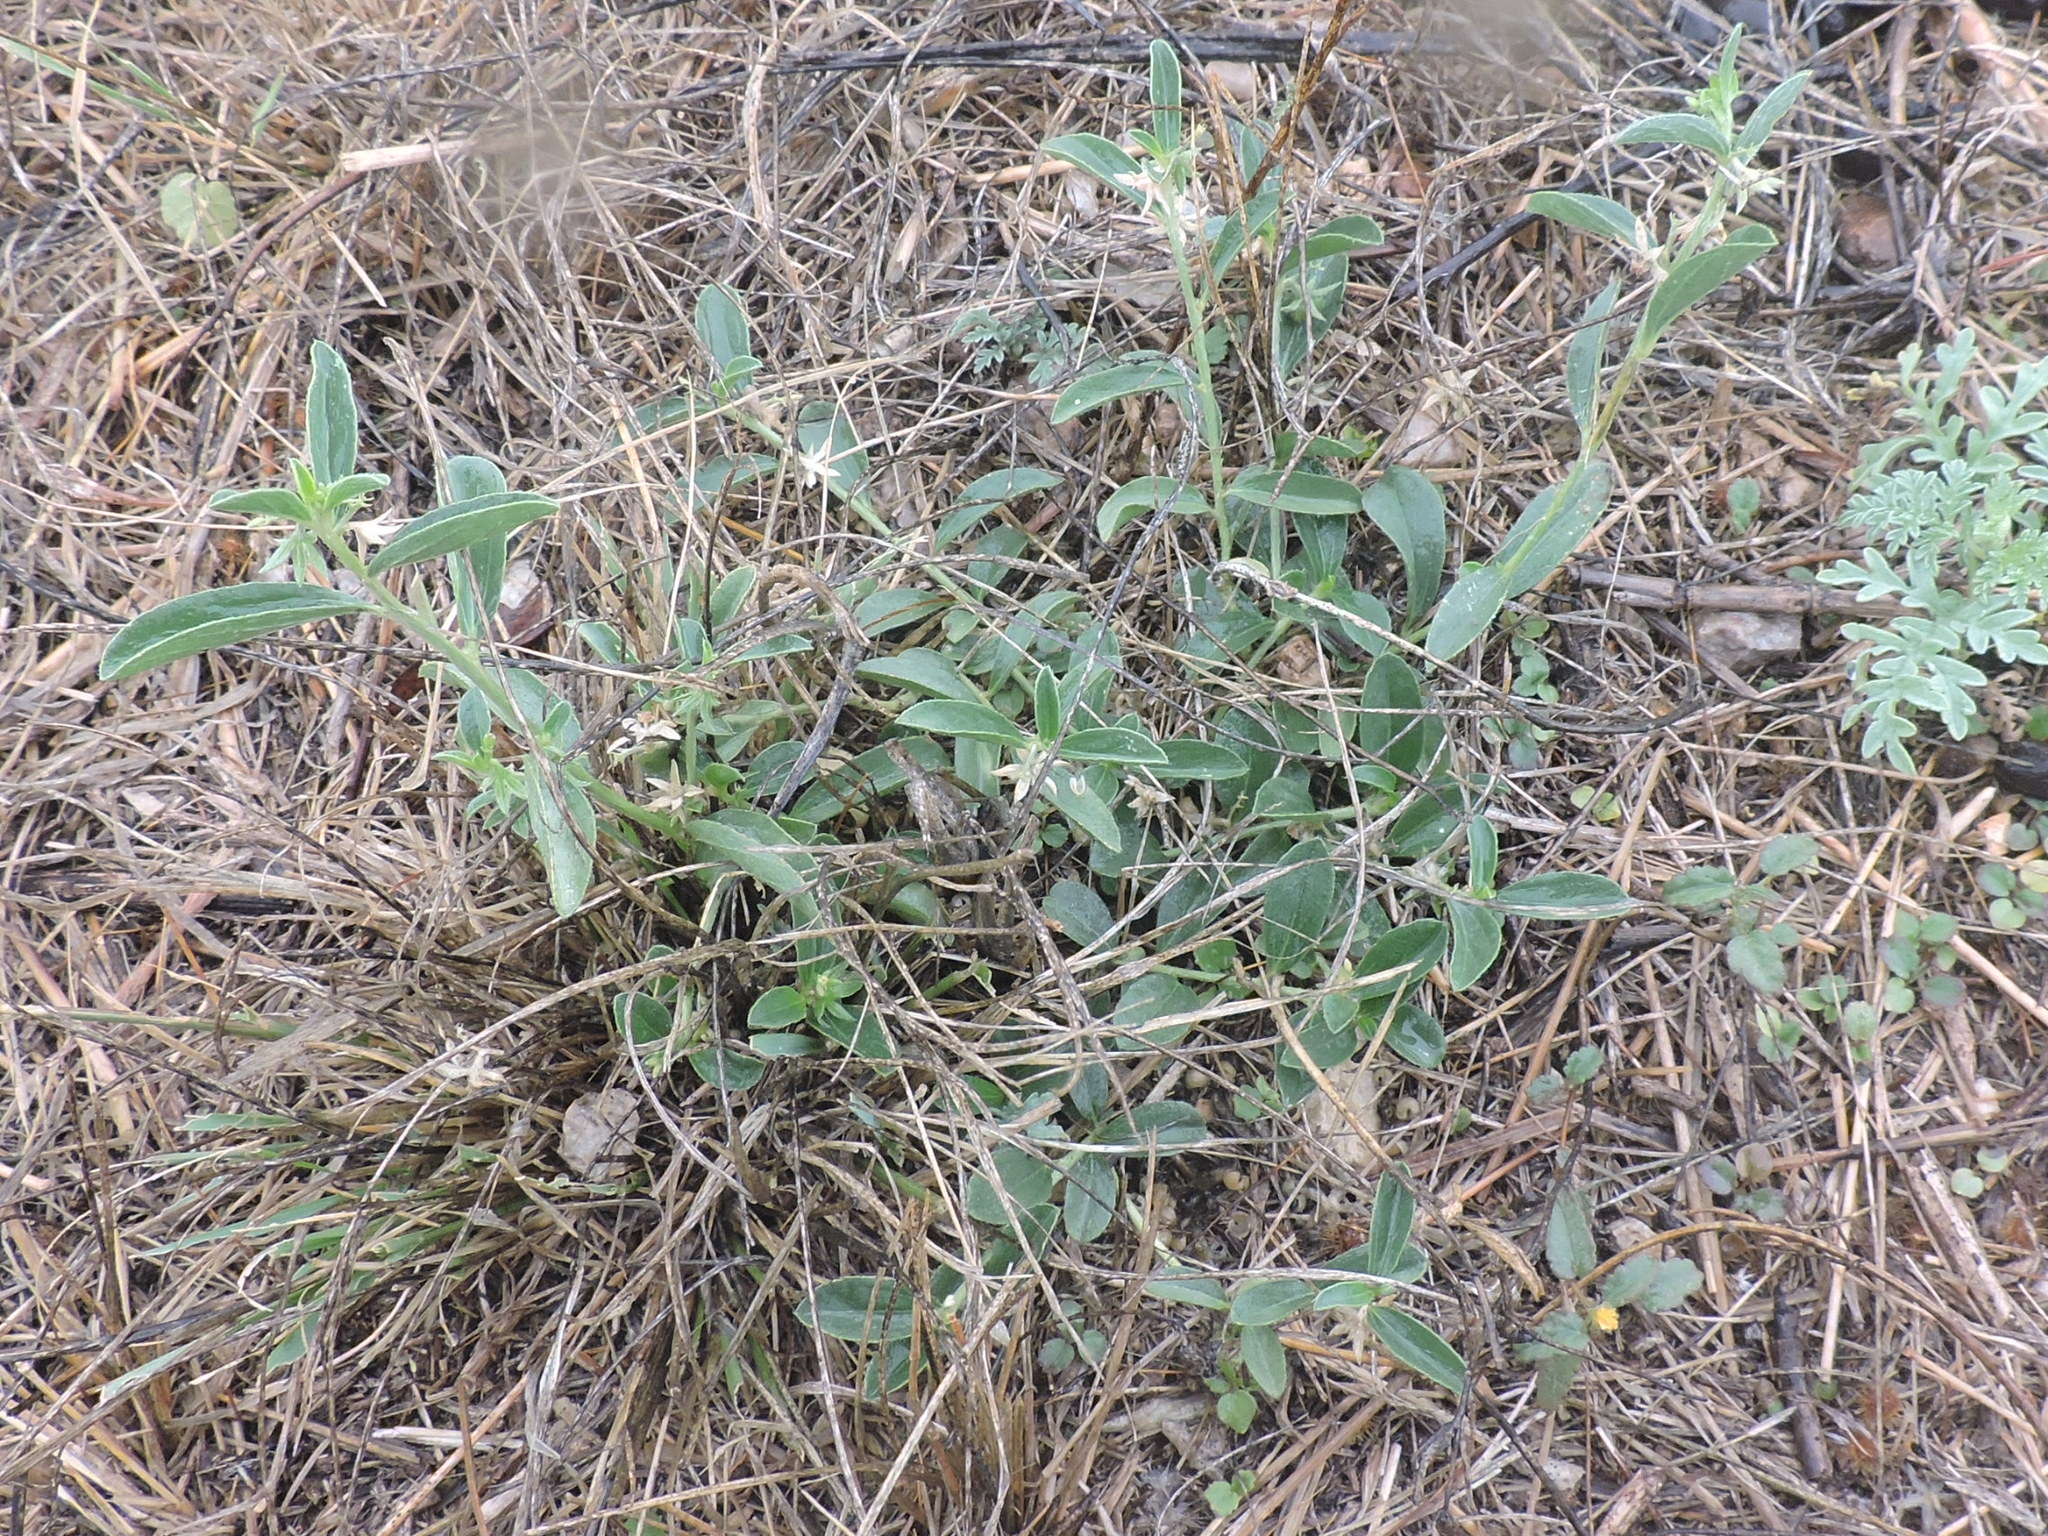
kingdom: Plantae
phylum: Tracheophyta
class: Magnoliopsida
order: Malpighiales
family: Euphorbiaceae
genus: Ditaxis
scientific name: Ditaxis humilis
